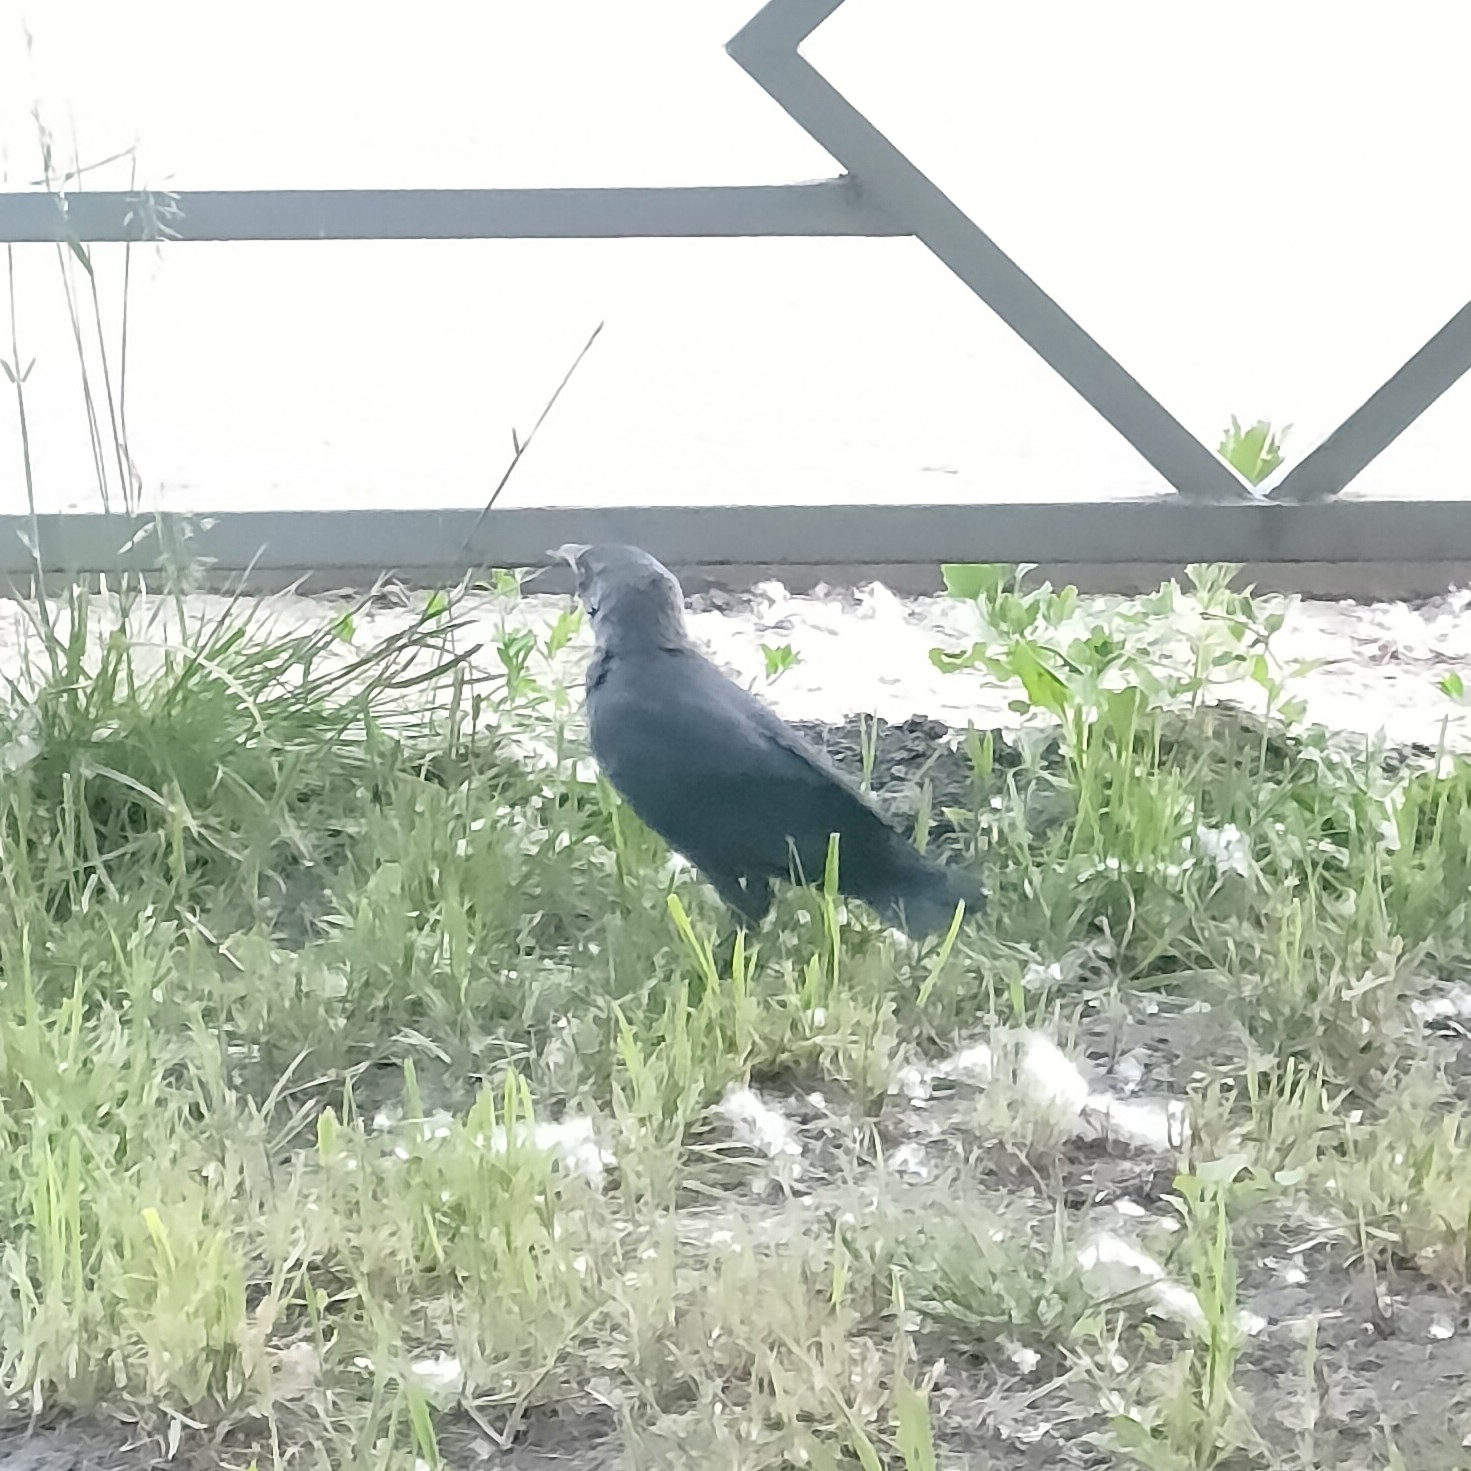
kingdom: Animalia
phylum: Chordata
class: Aves
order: Passeriformes
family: Corvidae
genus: Coloeus
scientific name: Coloeus monedula
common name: Western jackdaw
